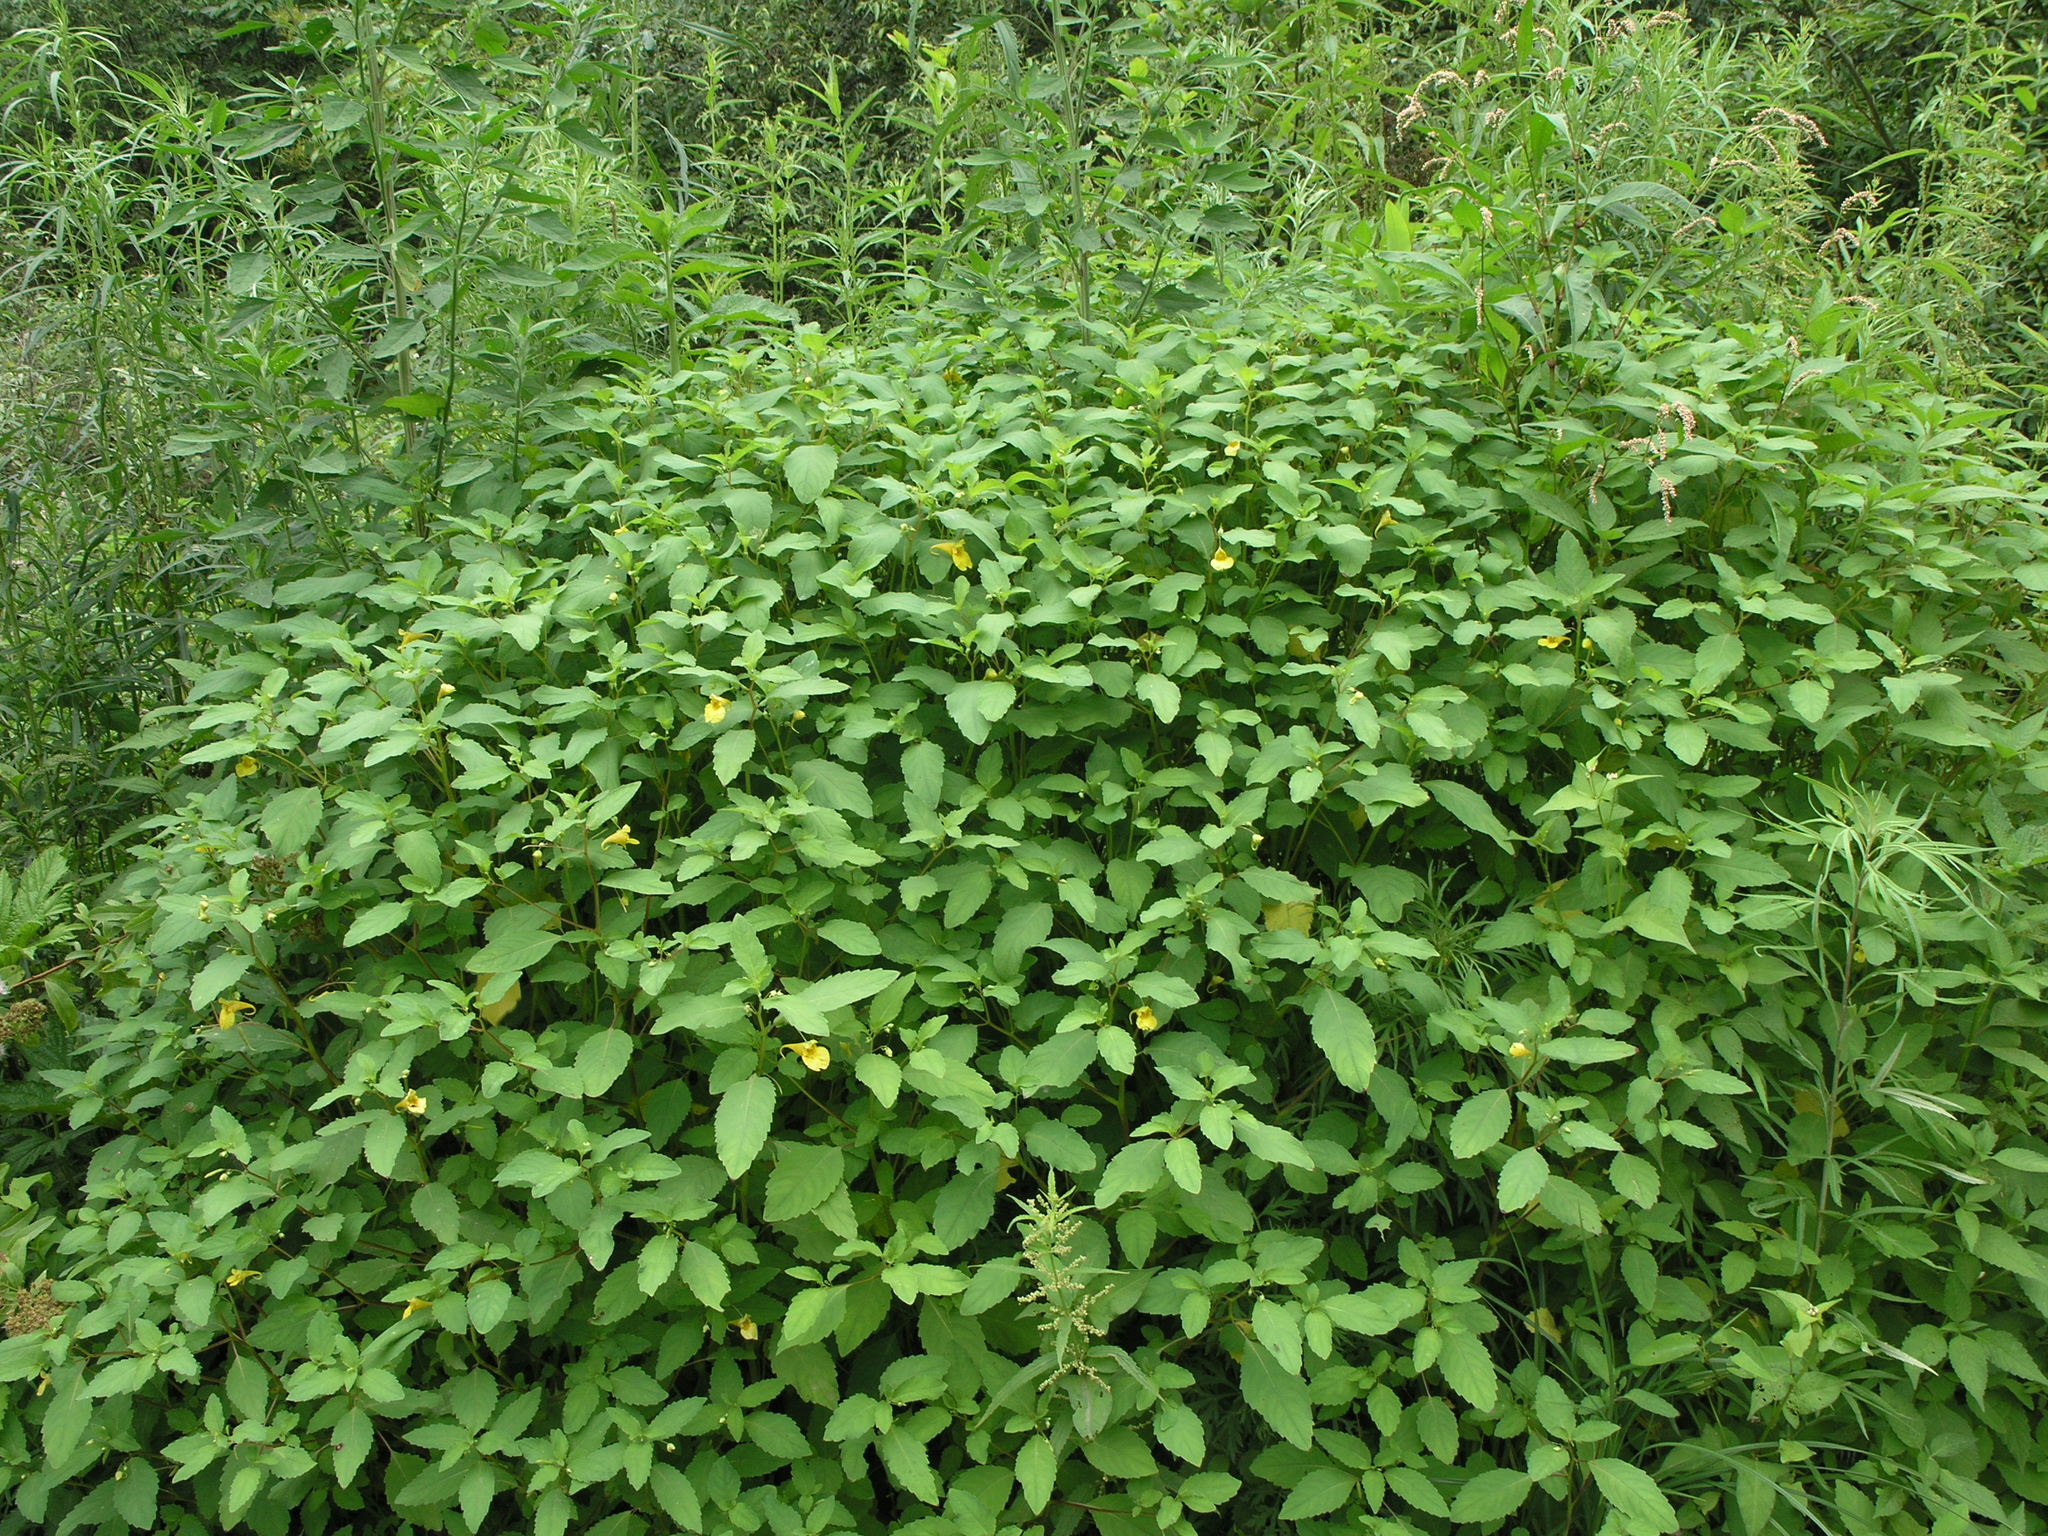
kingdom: Plantae
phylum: Tracheophyta
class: Magnoliopsida
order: Ericales
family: Balsaminaceae
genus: Impatiens
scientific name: Impatiens noli-tangere
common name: Touch-me-not balsam
